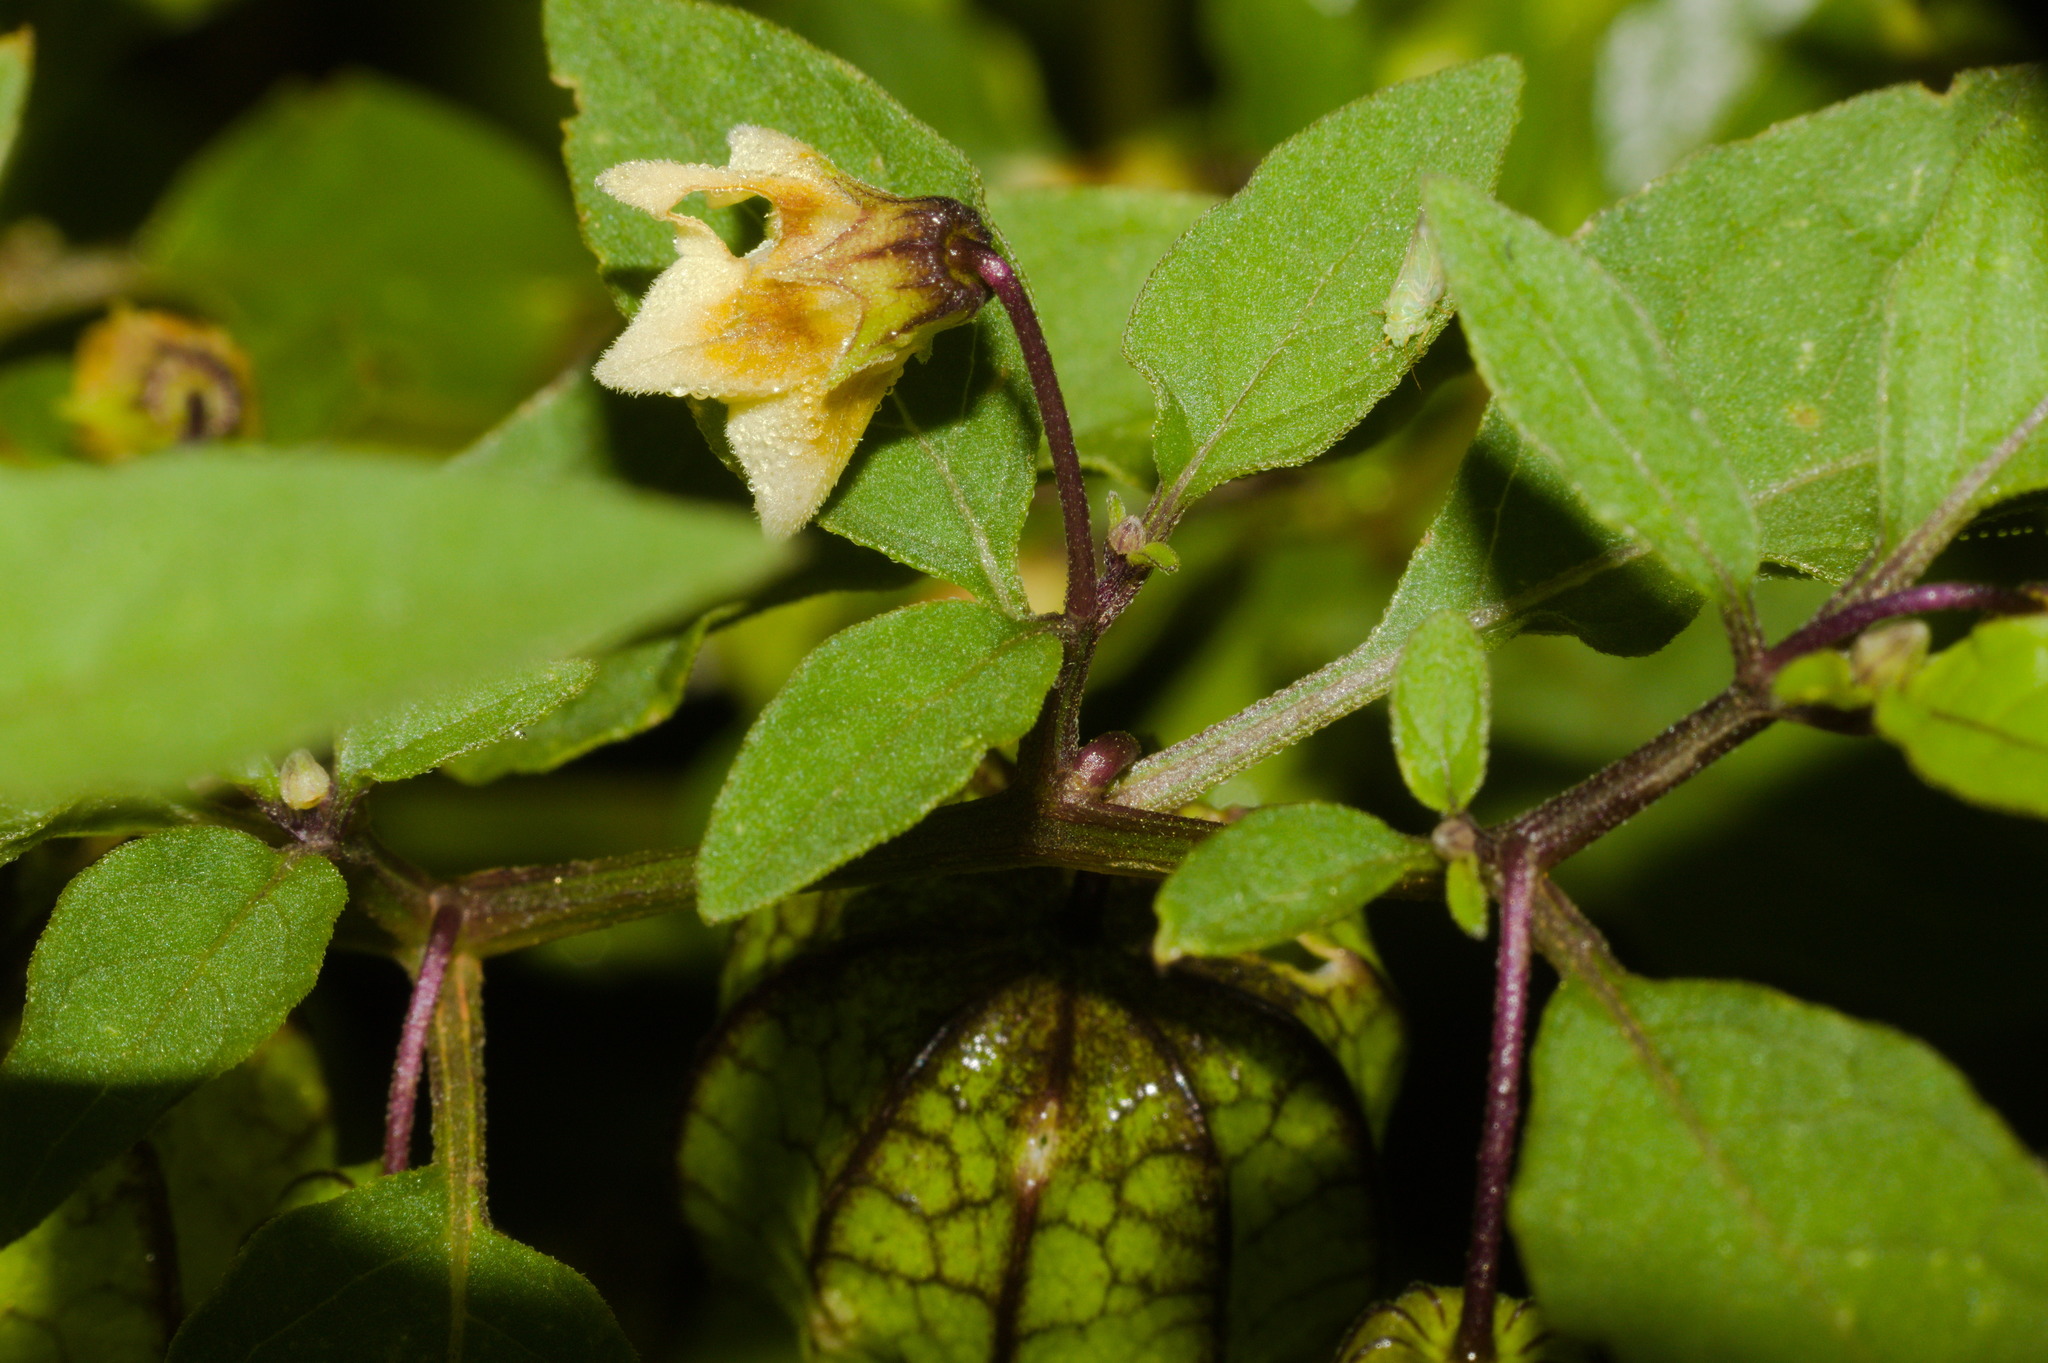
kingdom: Plantae
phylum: Tracheophyta
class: Magnoliopsida
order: Solanales
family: Solanaceae
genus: Physalis
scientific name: Physalis angulata
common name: Angular winter-cherry
